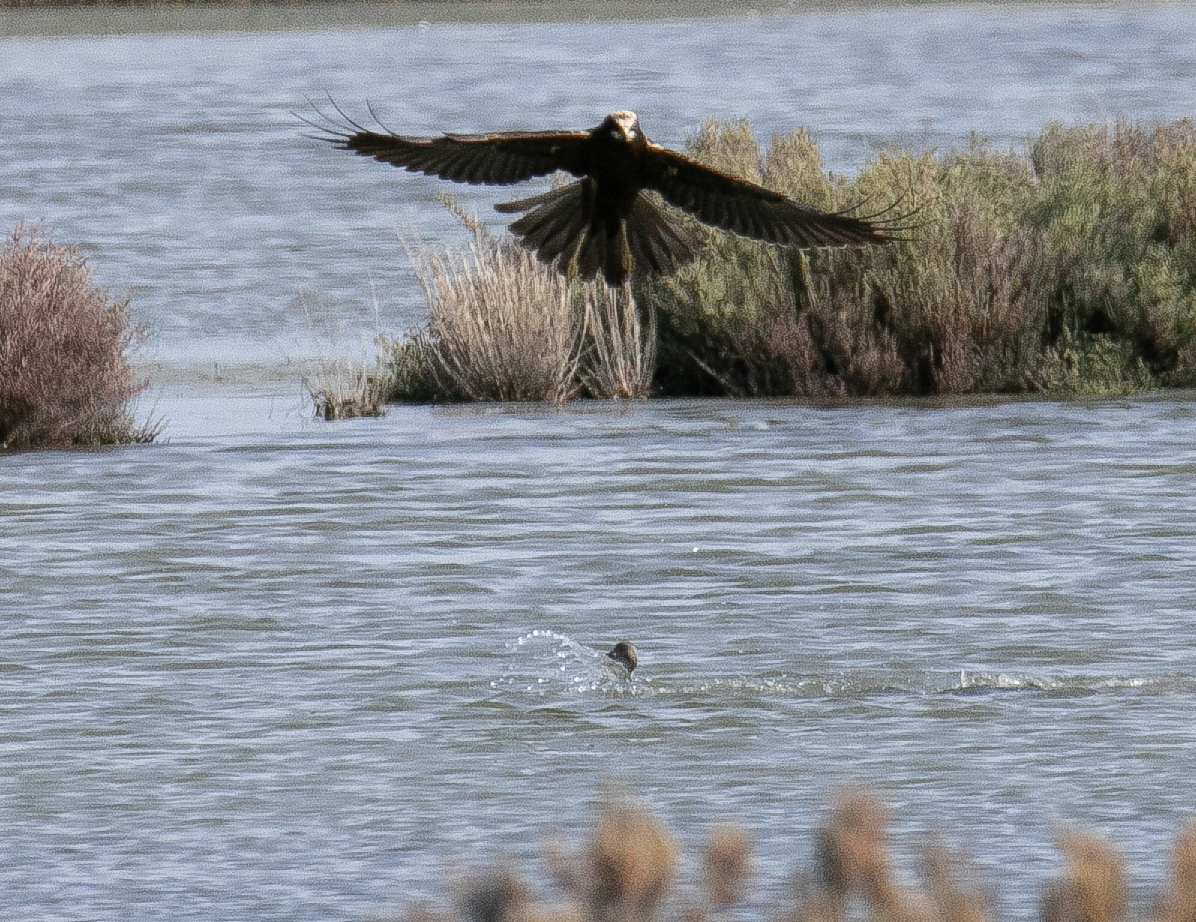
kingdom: Animalia
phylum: Chordata
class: Aves
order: Accipitriformes
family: Accipitridae
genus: Circus
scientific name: Circus aeruginosus
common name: Western marsh harrier
